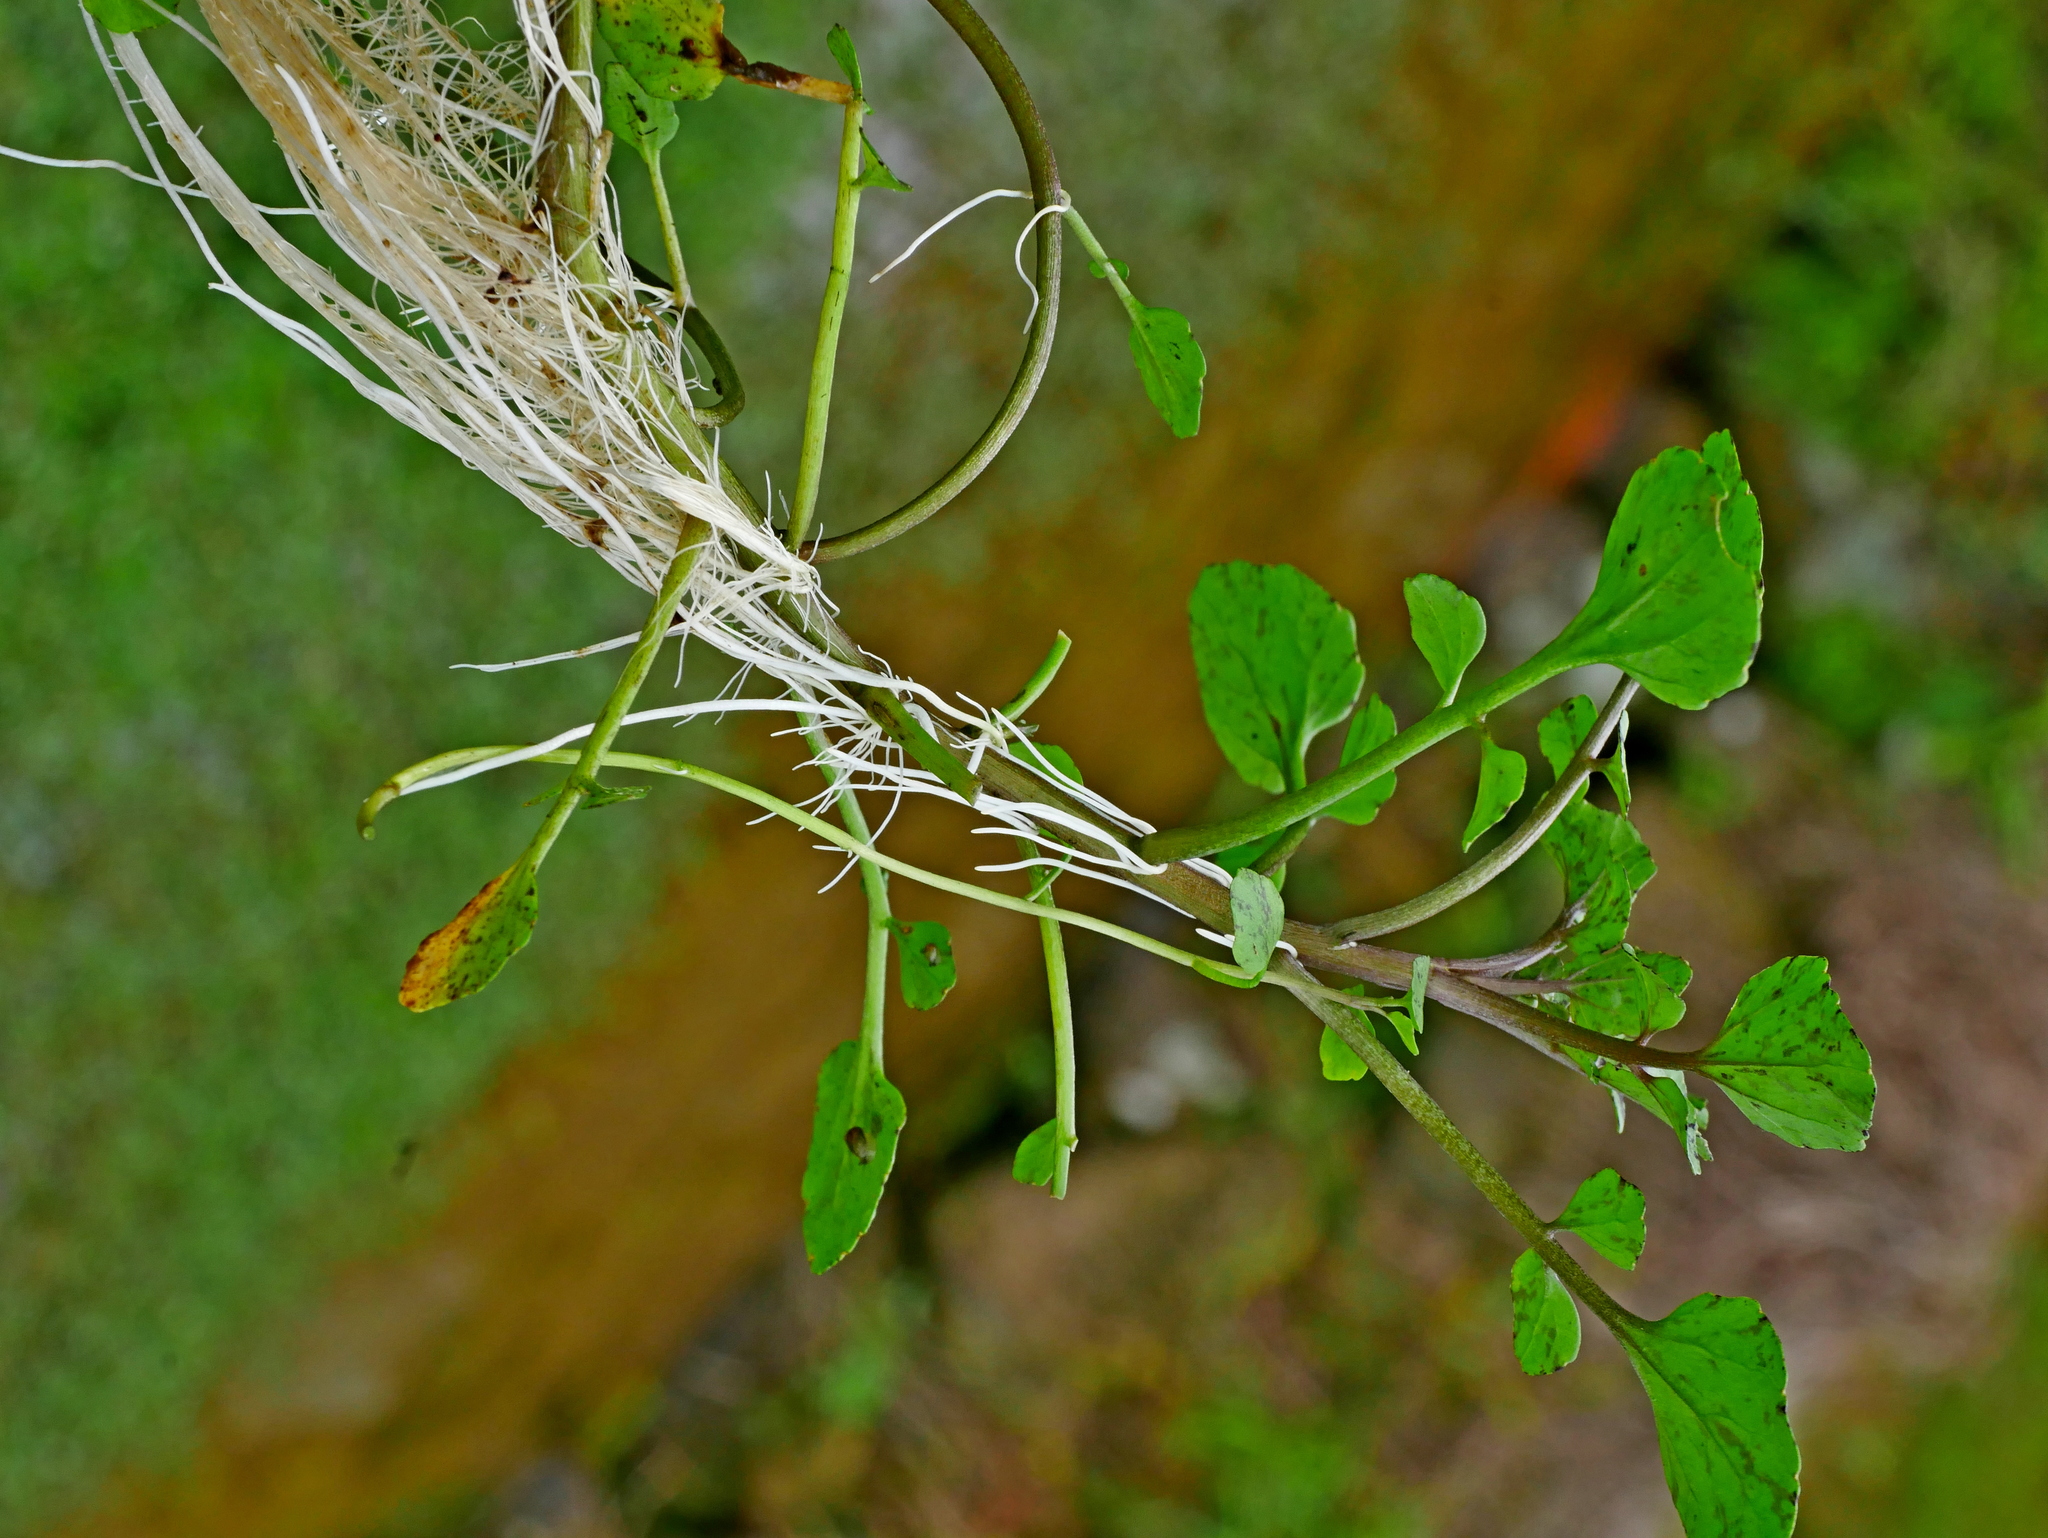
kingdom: Plantae
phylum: Tracheophyta
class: Magnoliopsida
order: Brassicales
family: Brassicaceae
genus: Nasturtium
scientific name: Nasturtium officinale
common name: Watercress
